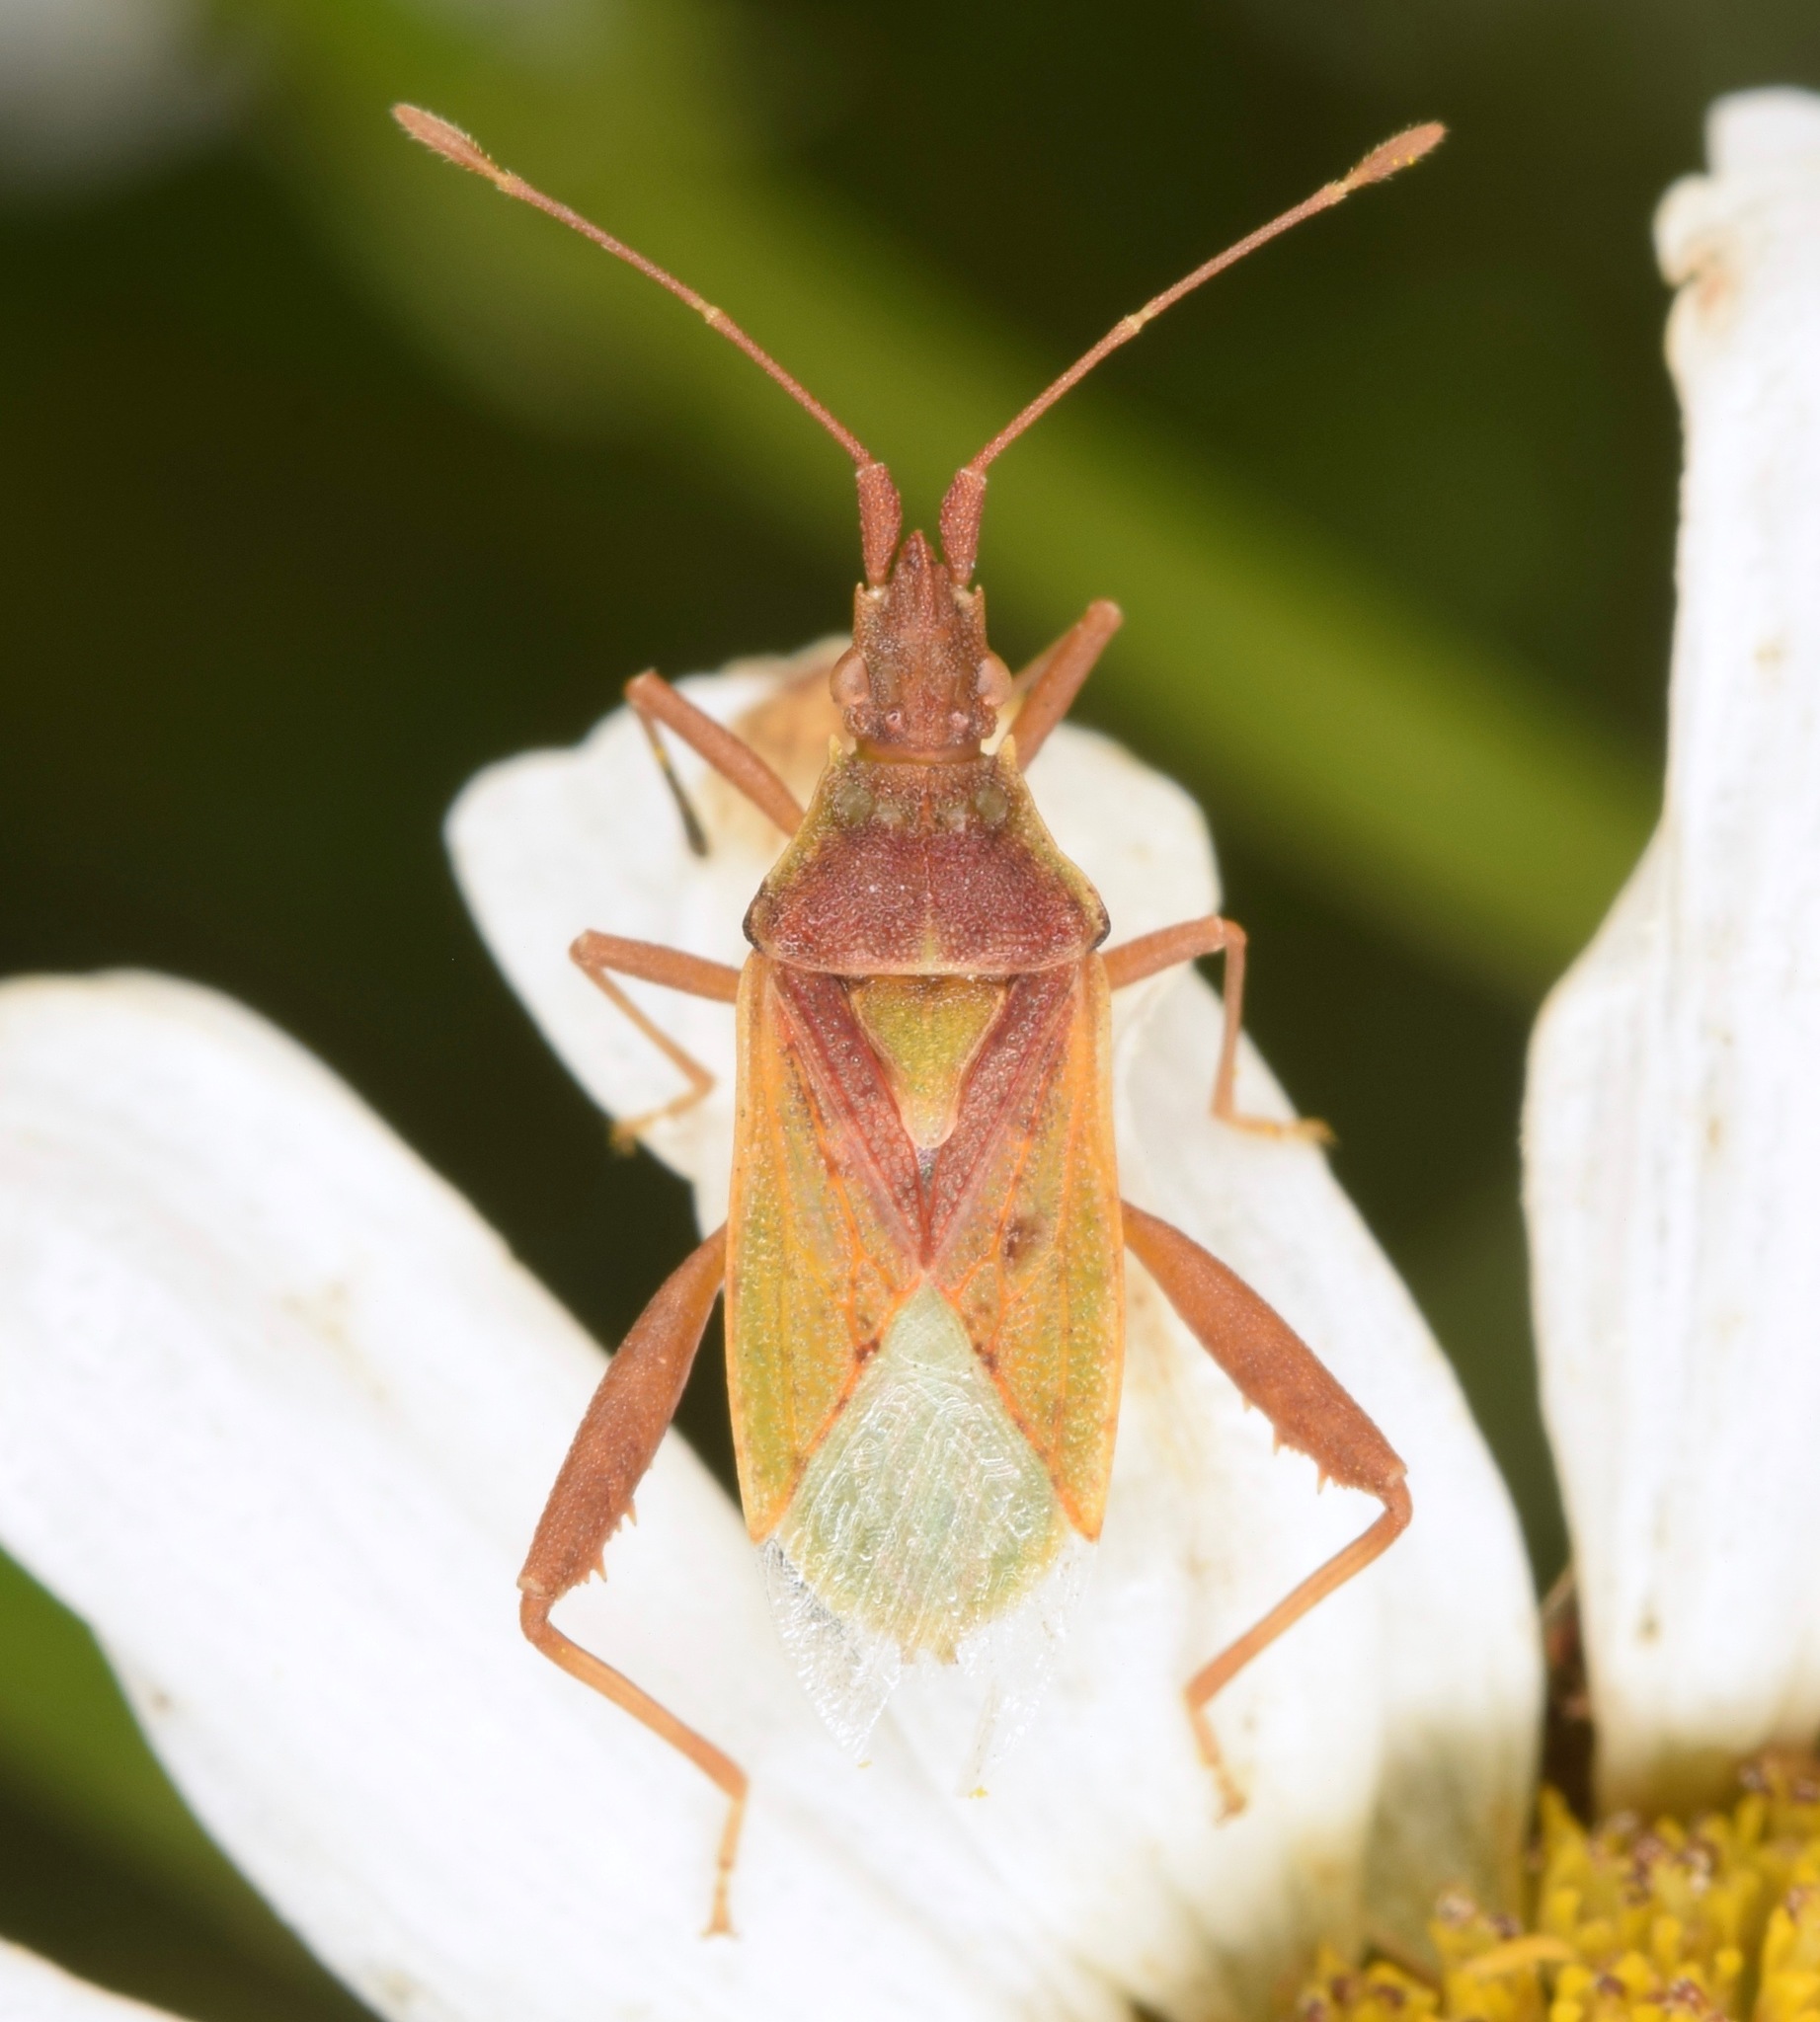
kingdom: Animalia
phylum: Arthropoda
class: Insecta
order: Hemiptera
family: Rhopalidae
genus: Harmostes
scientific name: Harmostes reflexulus
